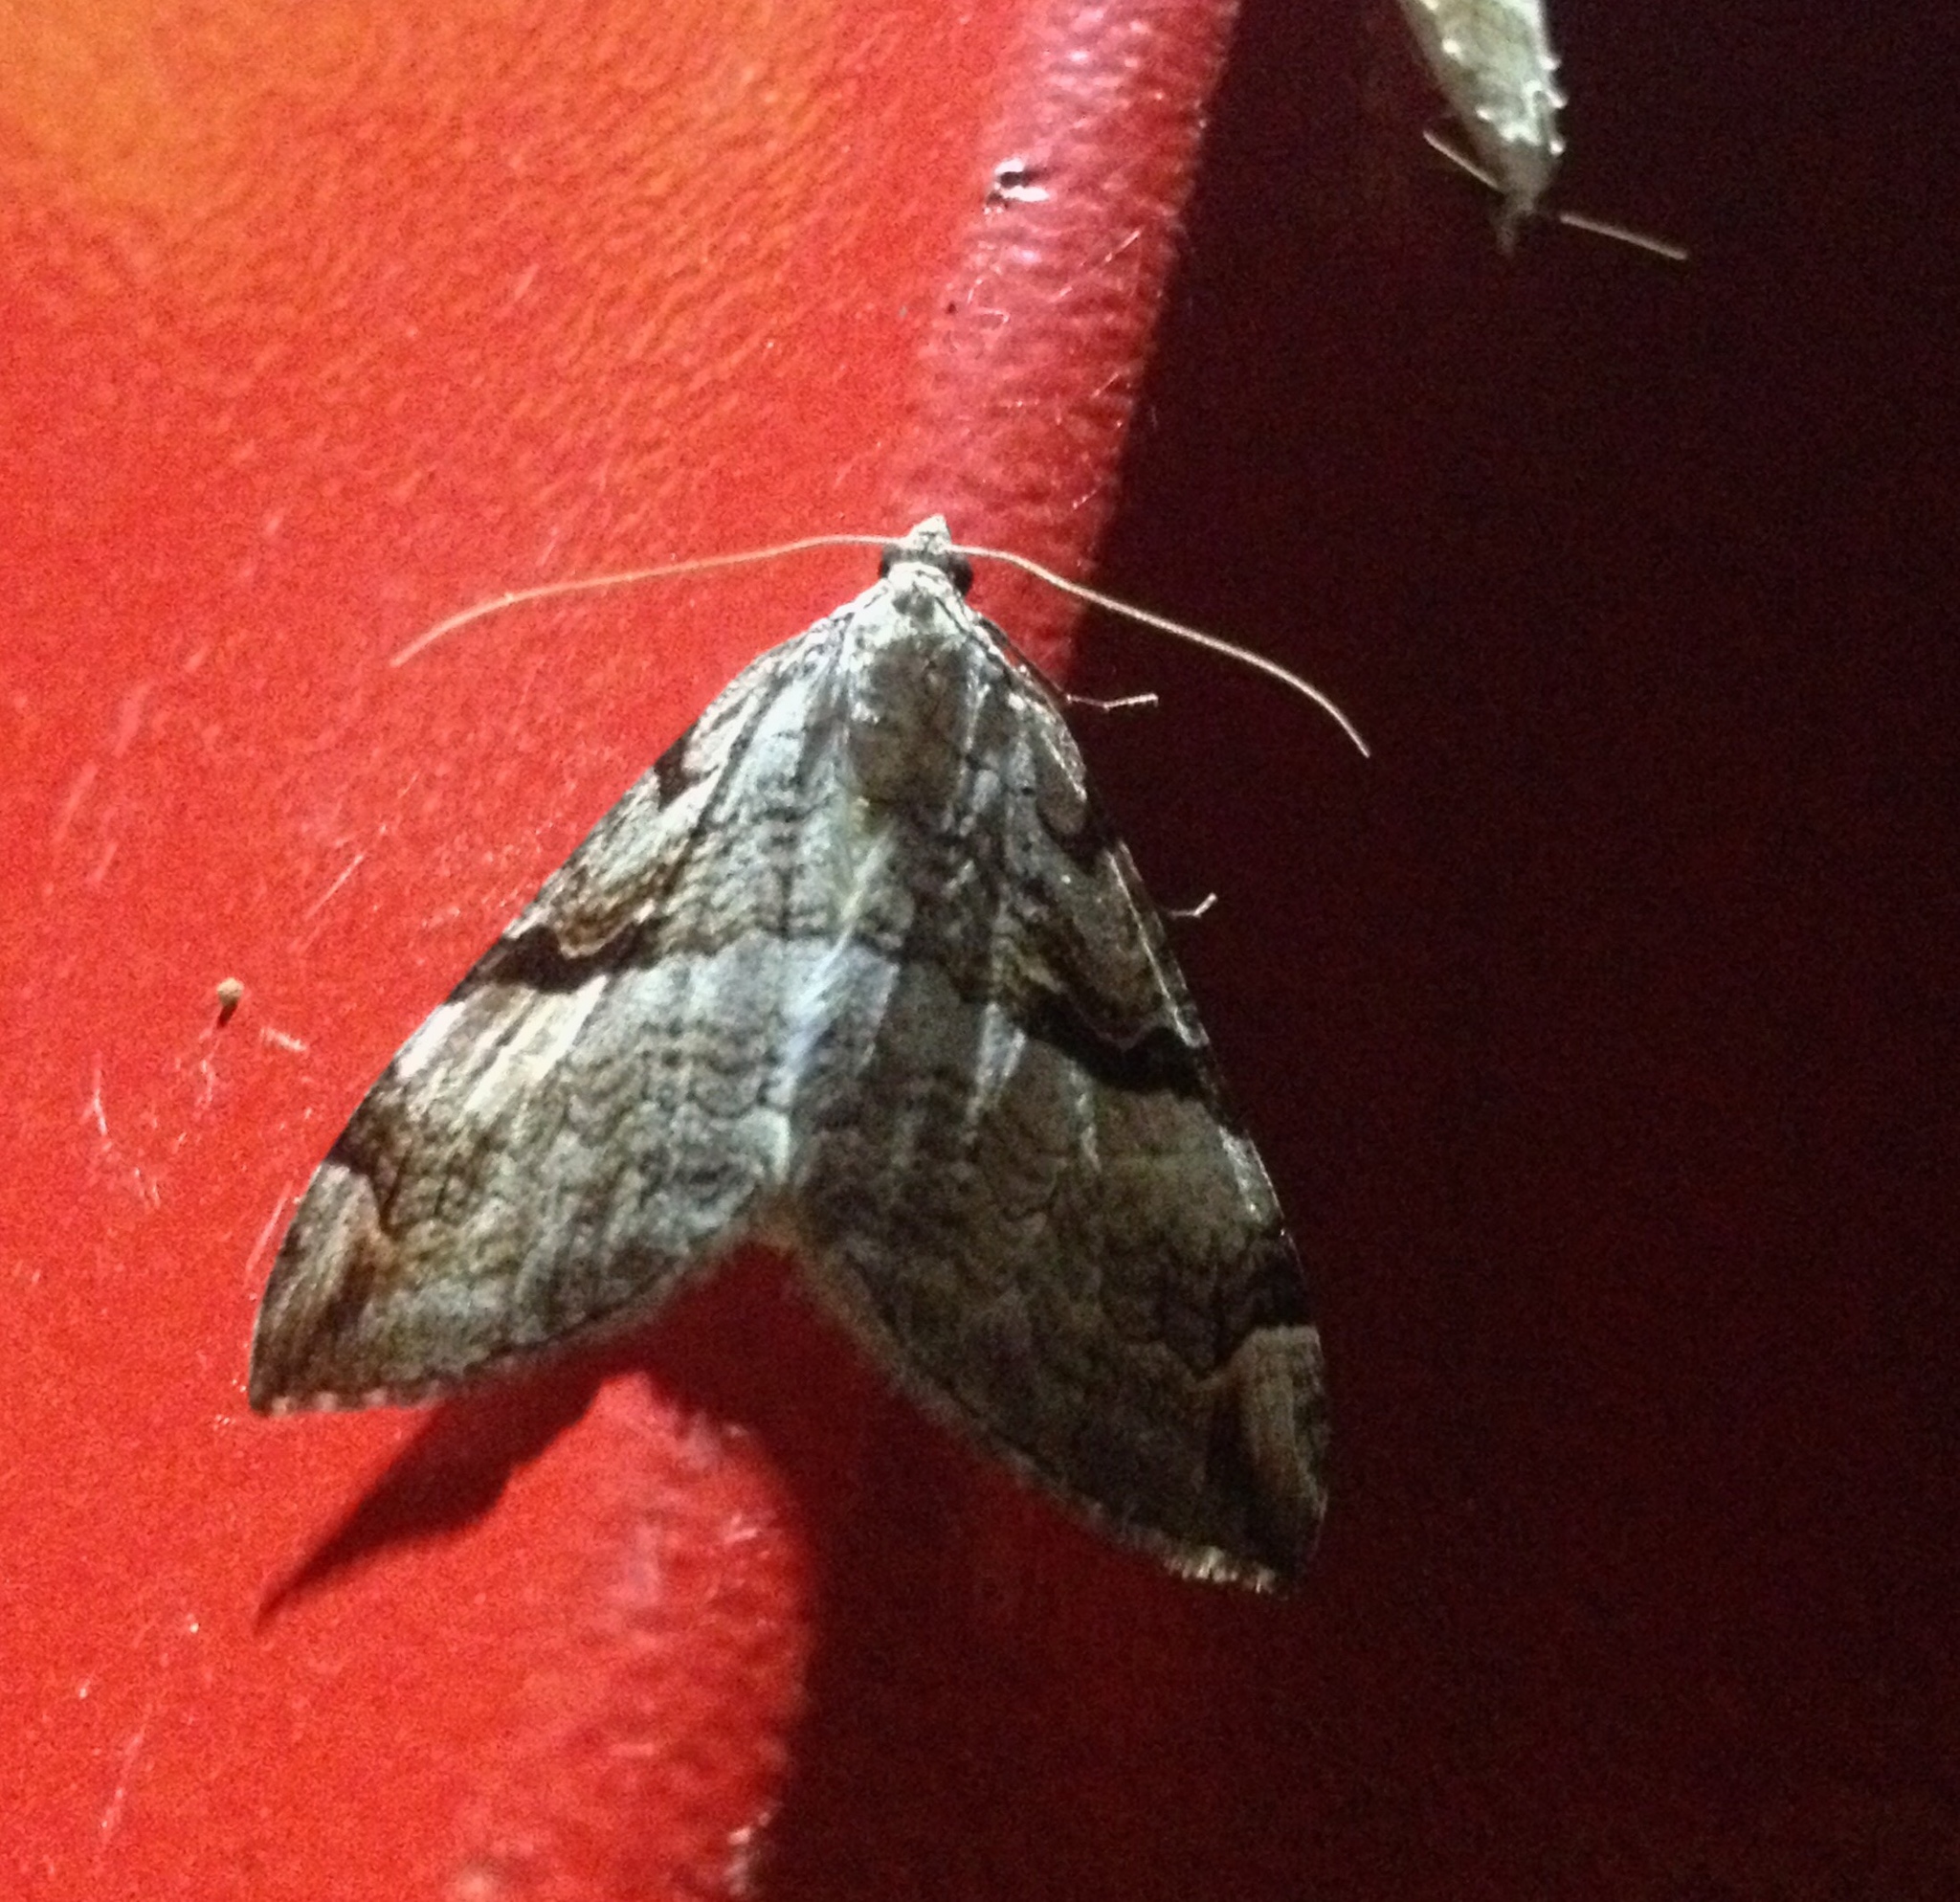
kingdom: Animalia
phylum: Arthropoda
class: Insecta
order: Lepidoptera
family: Geometridae
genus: Aplocera
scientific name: Aplocera praeformata
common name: Purple treble-bar
